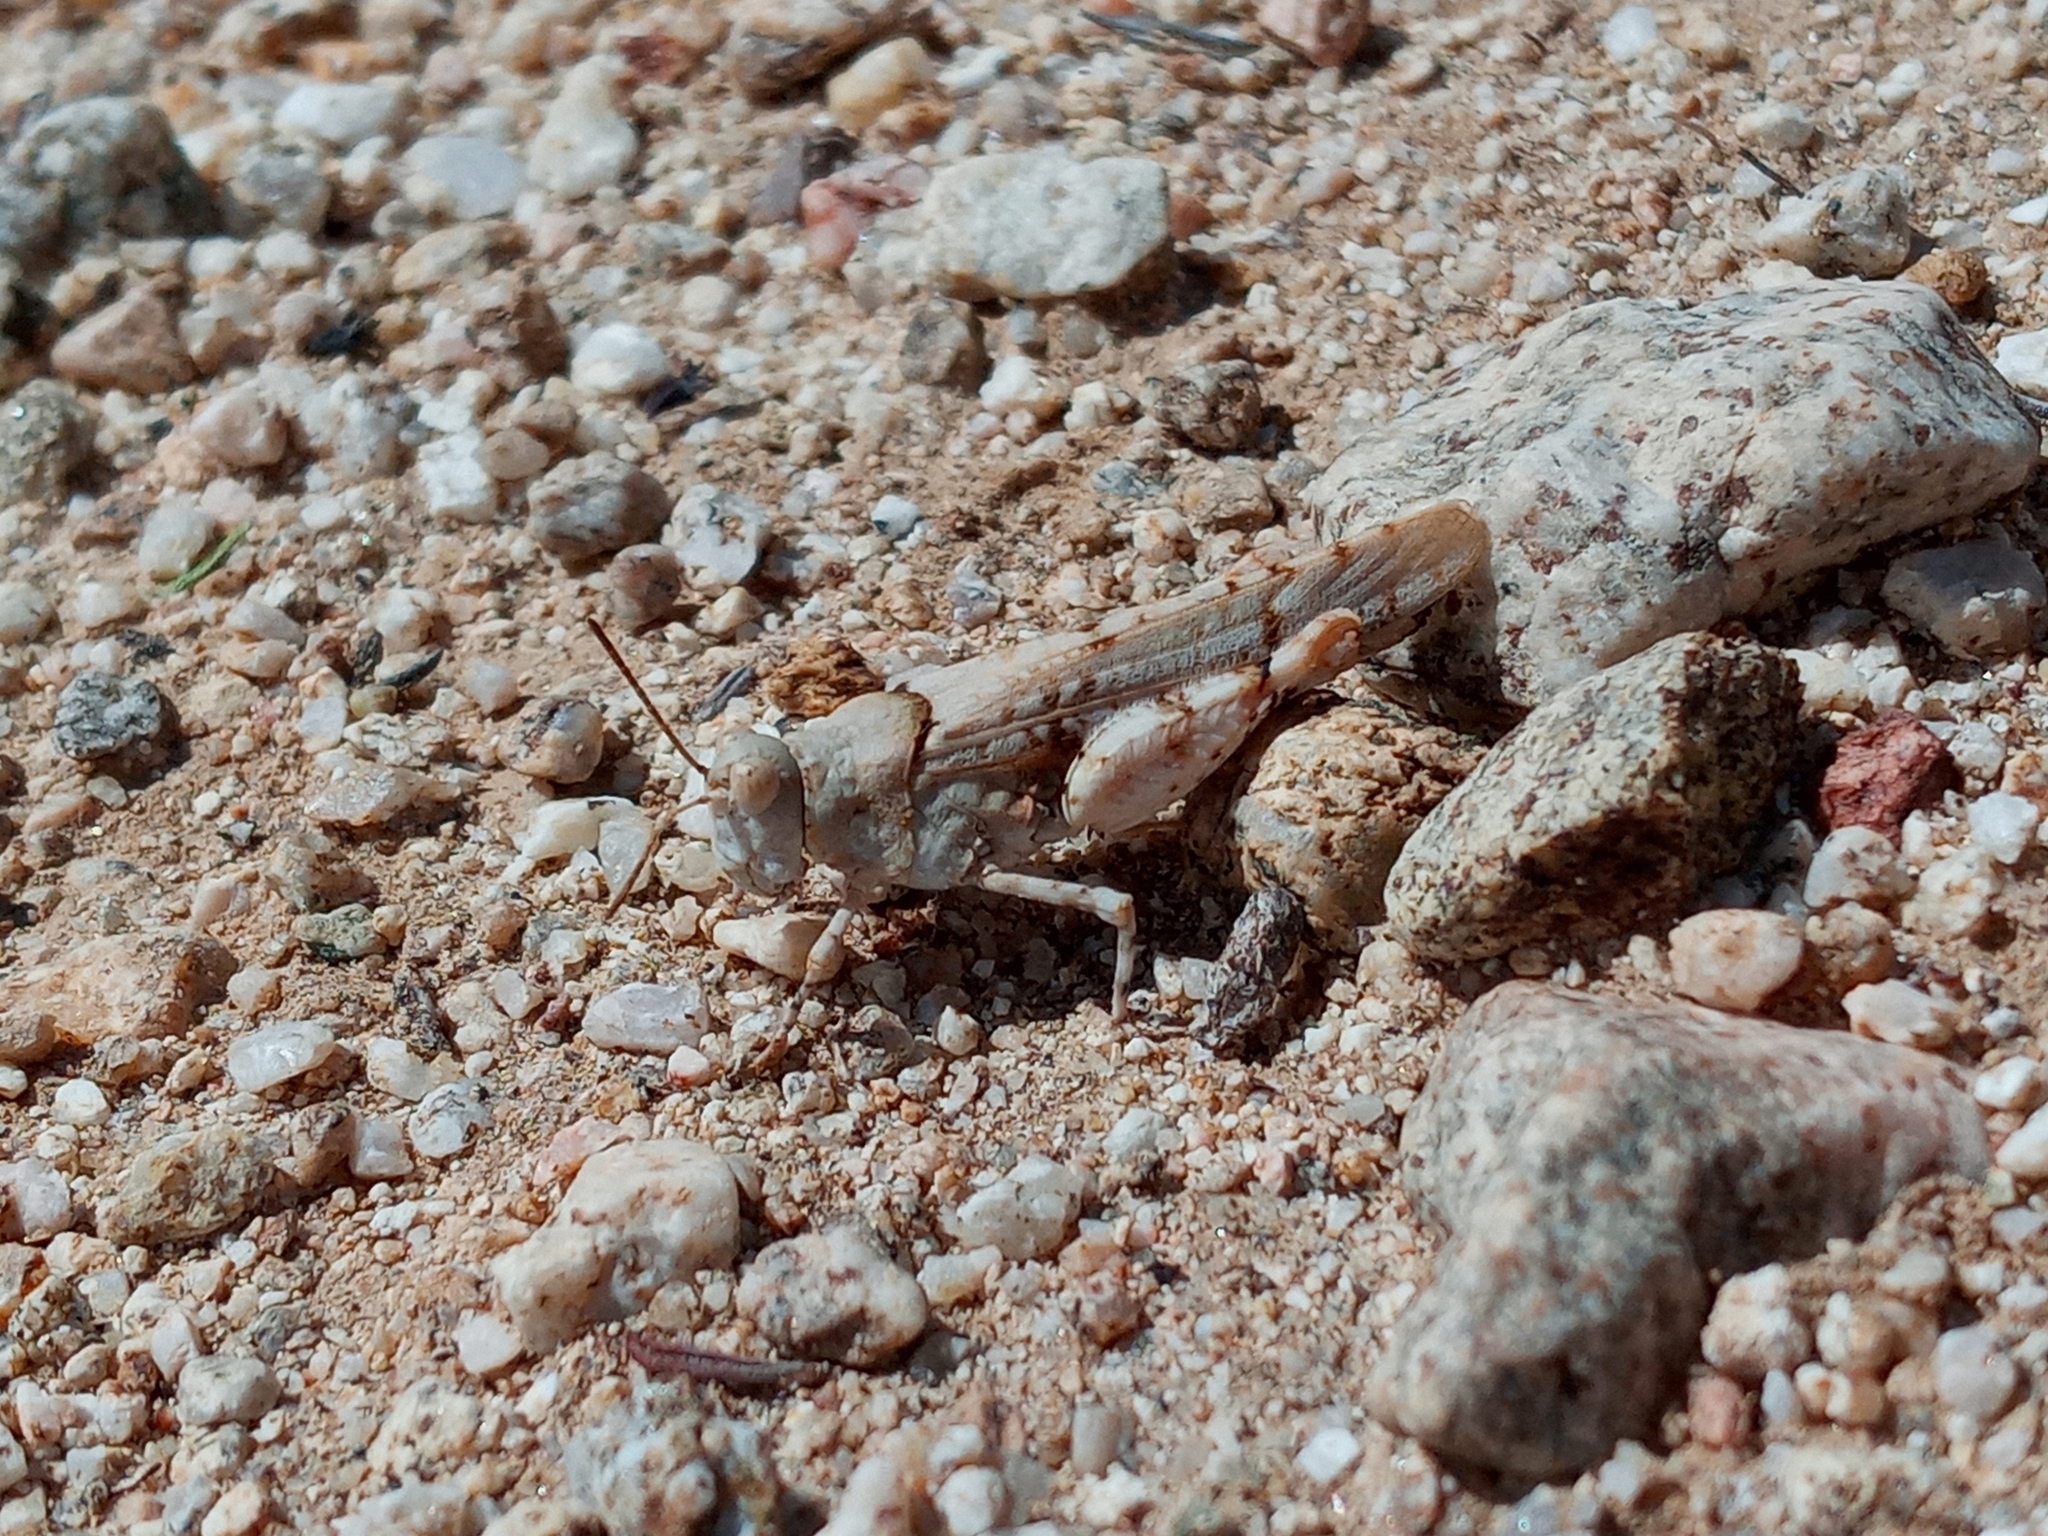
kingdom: Animalia
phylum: Arthropoda
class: Insecta
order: Orthoptera
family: Acrididae
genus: Cibolacris
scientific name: Cibolacris parviceps
